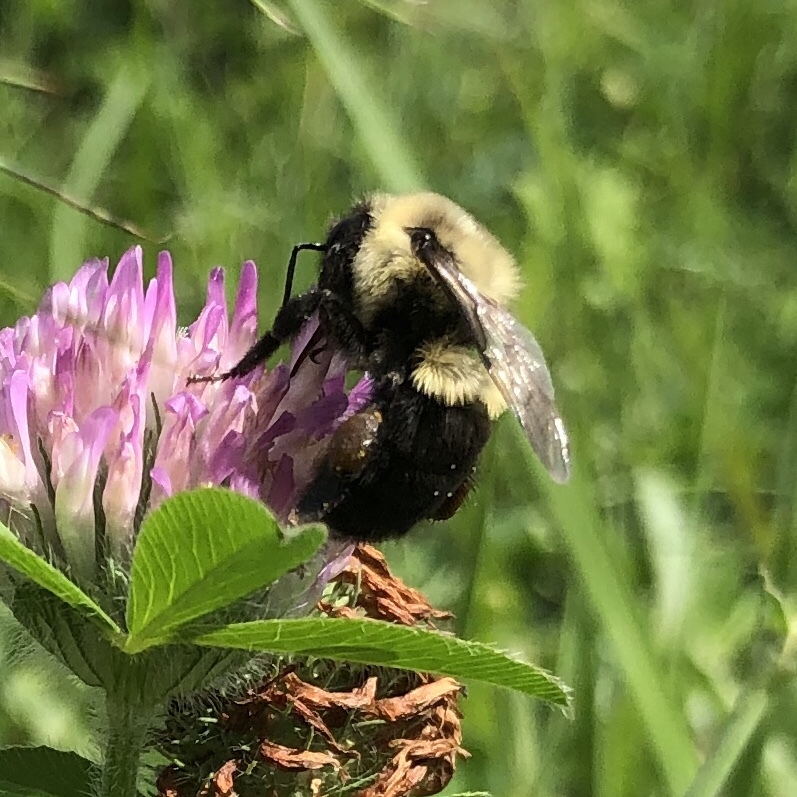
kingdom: Animalia
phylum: Arthropoda
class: Insecta
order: Hymenoptera
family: Apidae
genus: Bombus
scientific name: Bombus impatiens
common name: Common eastern bumble bee
